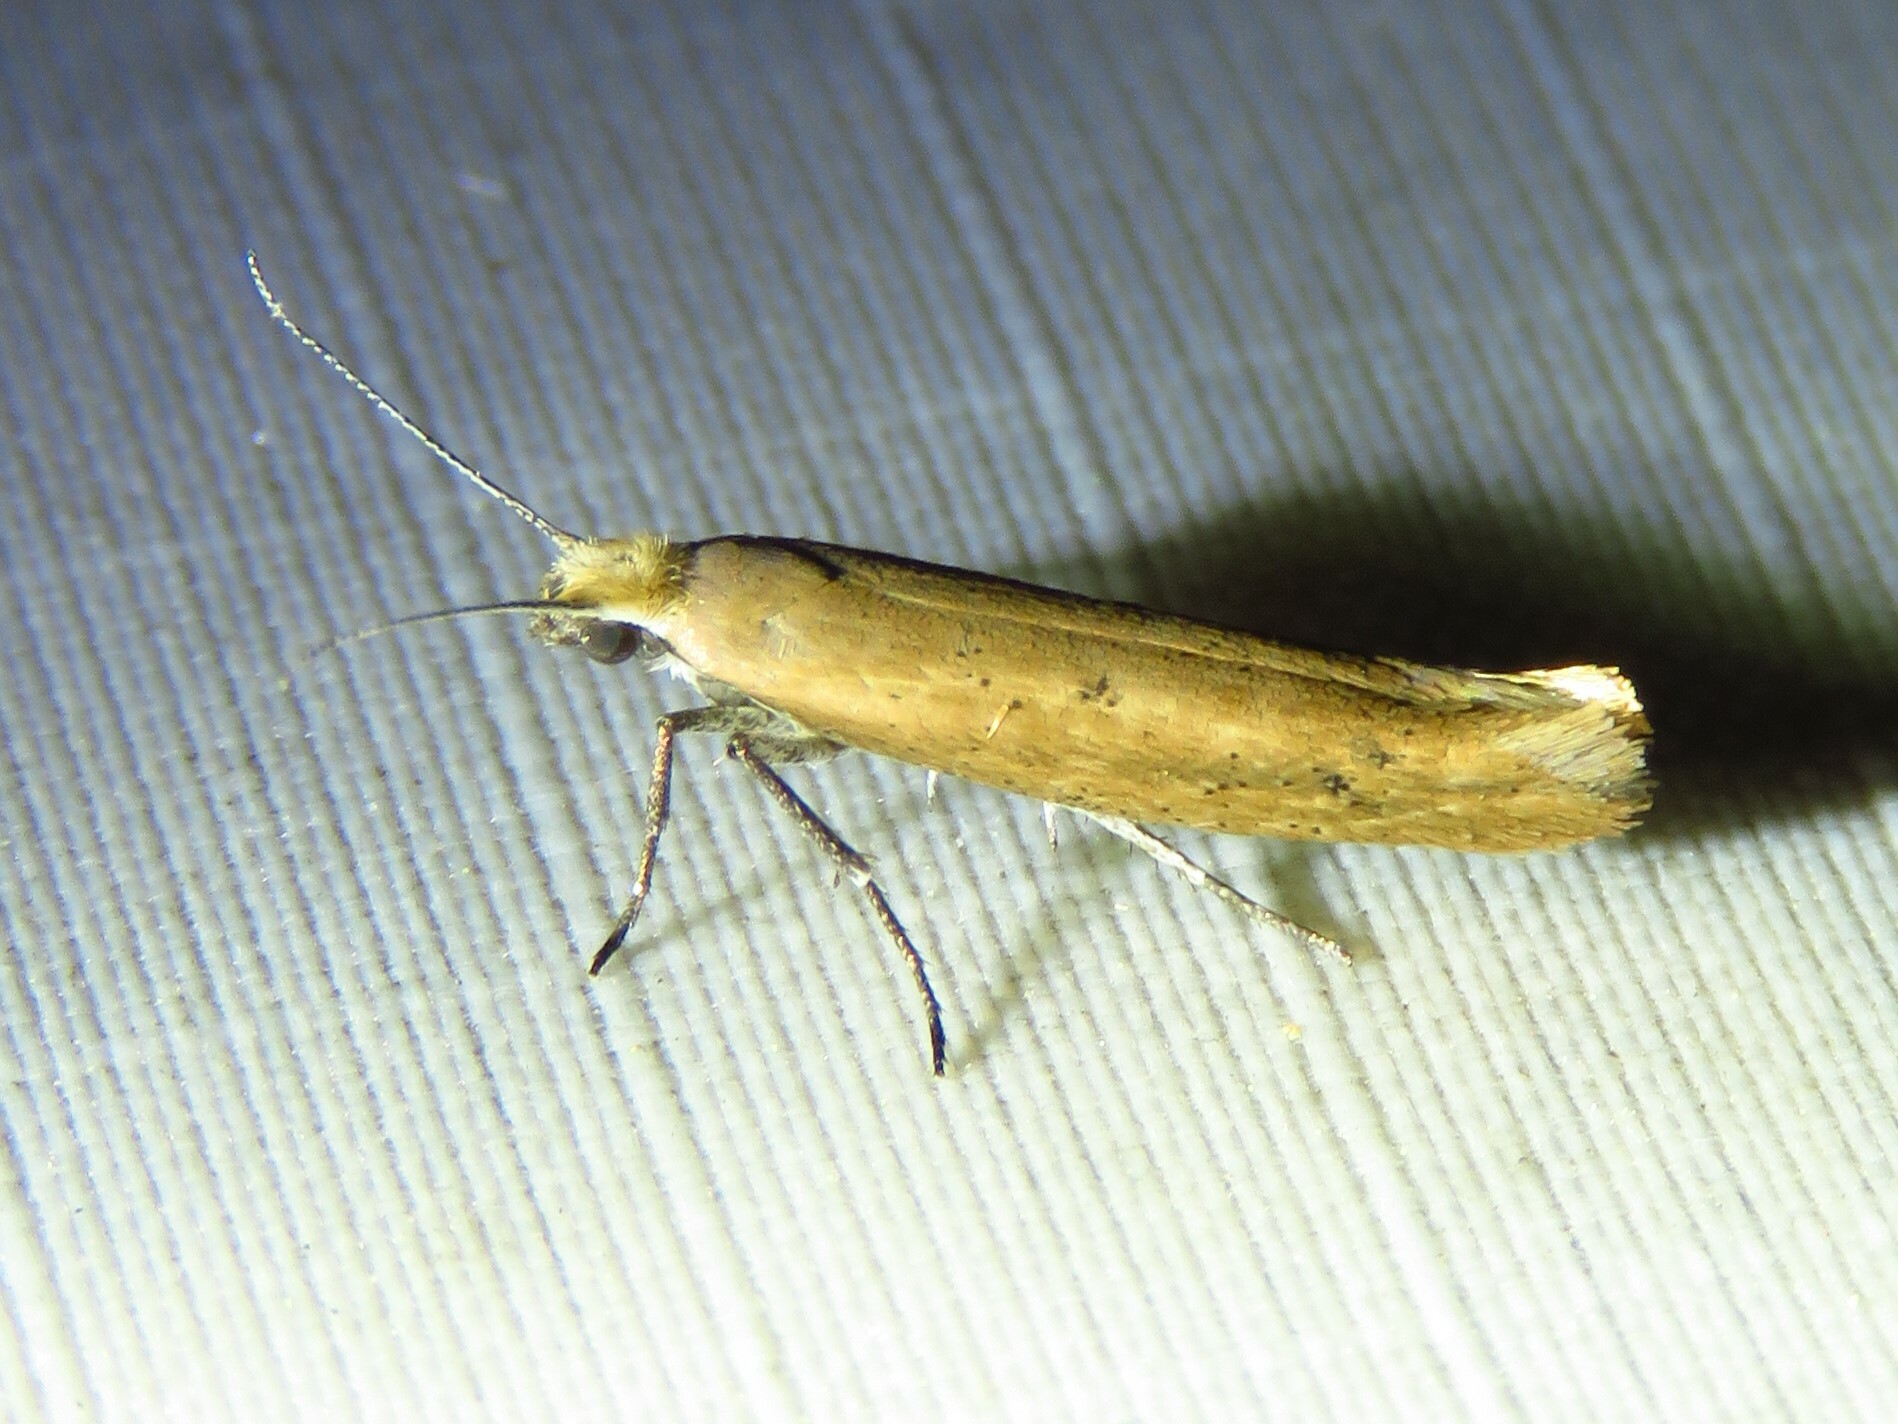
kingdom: Animalia
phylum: Arthropoda
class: Insecta
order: Lepidoptera
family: Ypsolophidae
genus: Ypsolopha
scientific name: Ypsolopha
